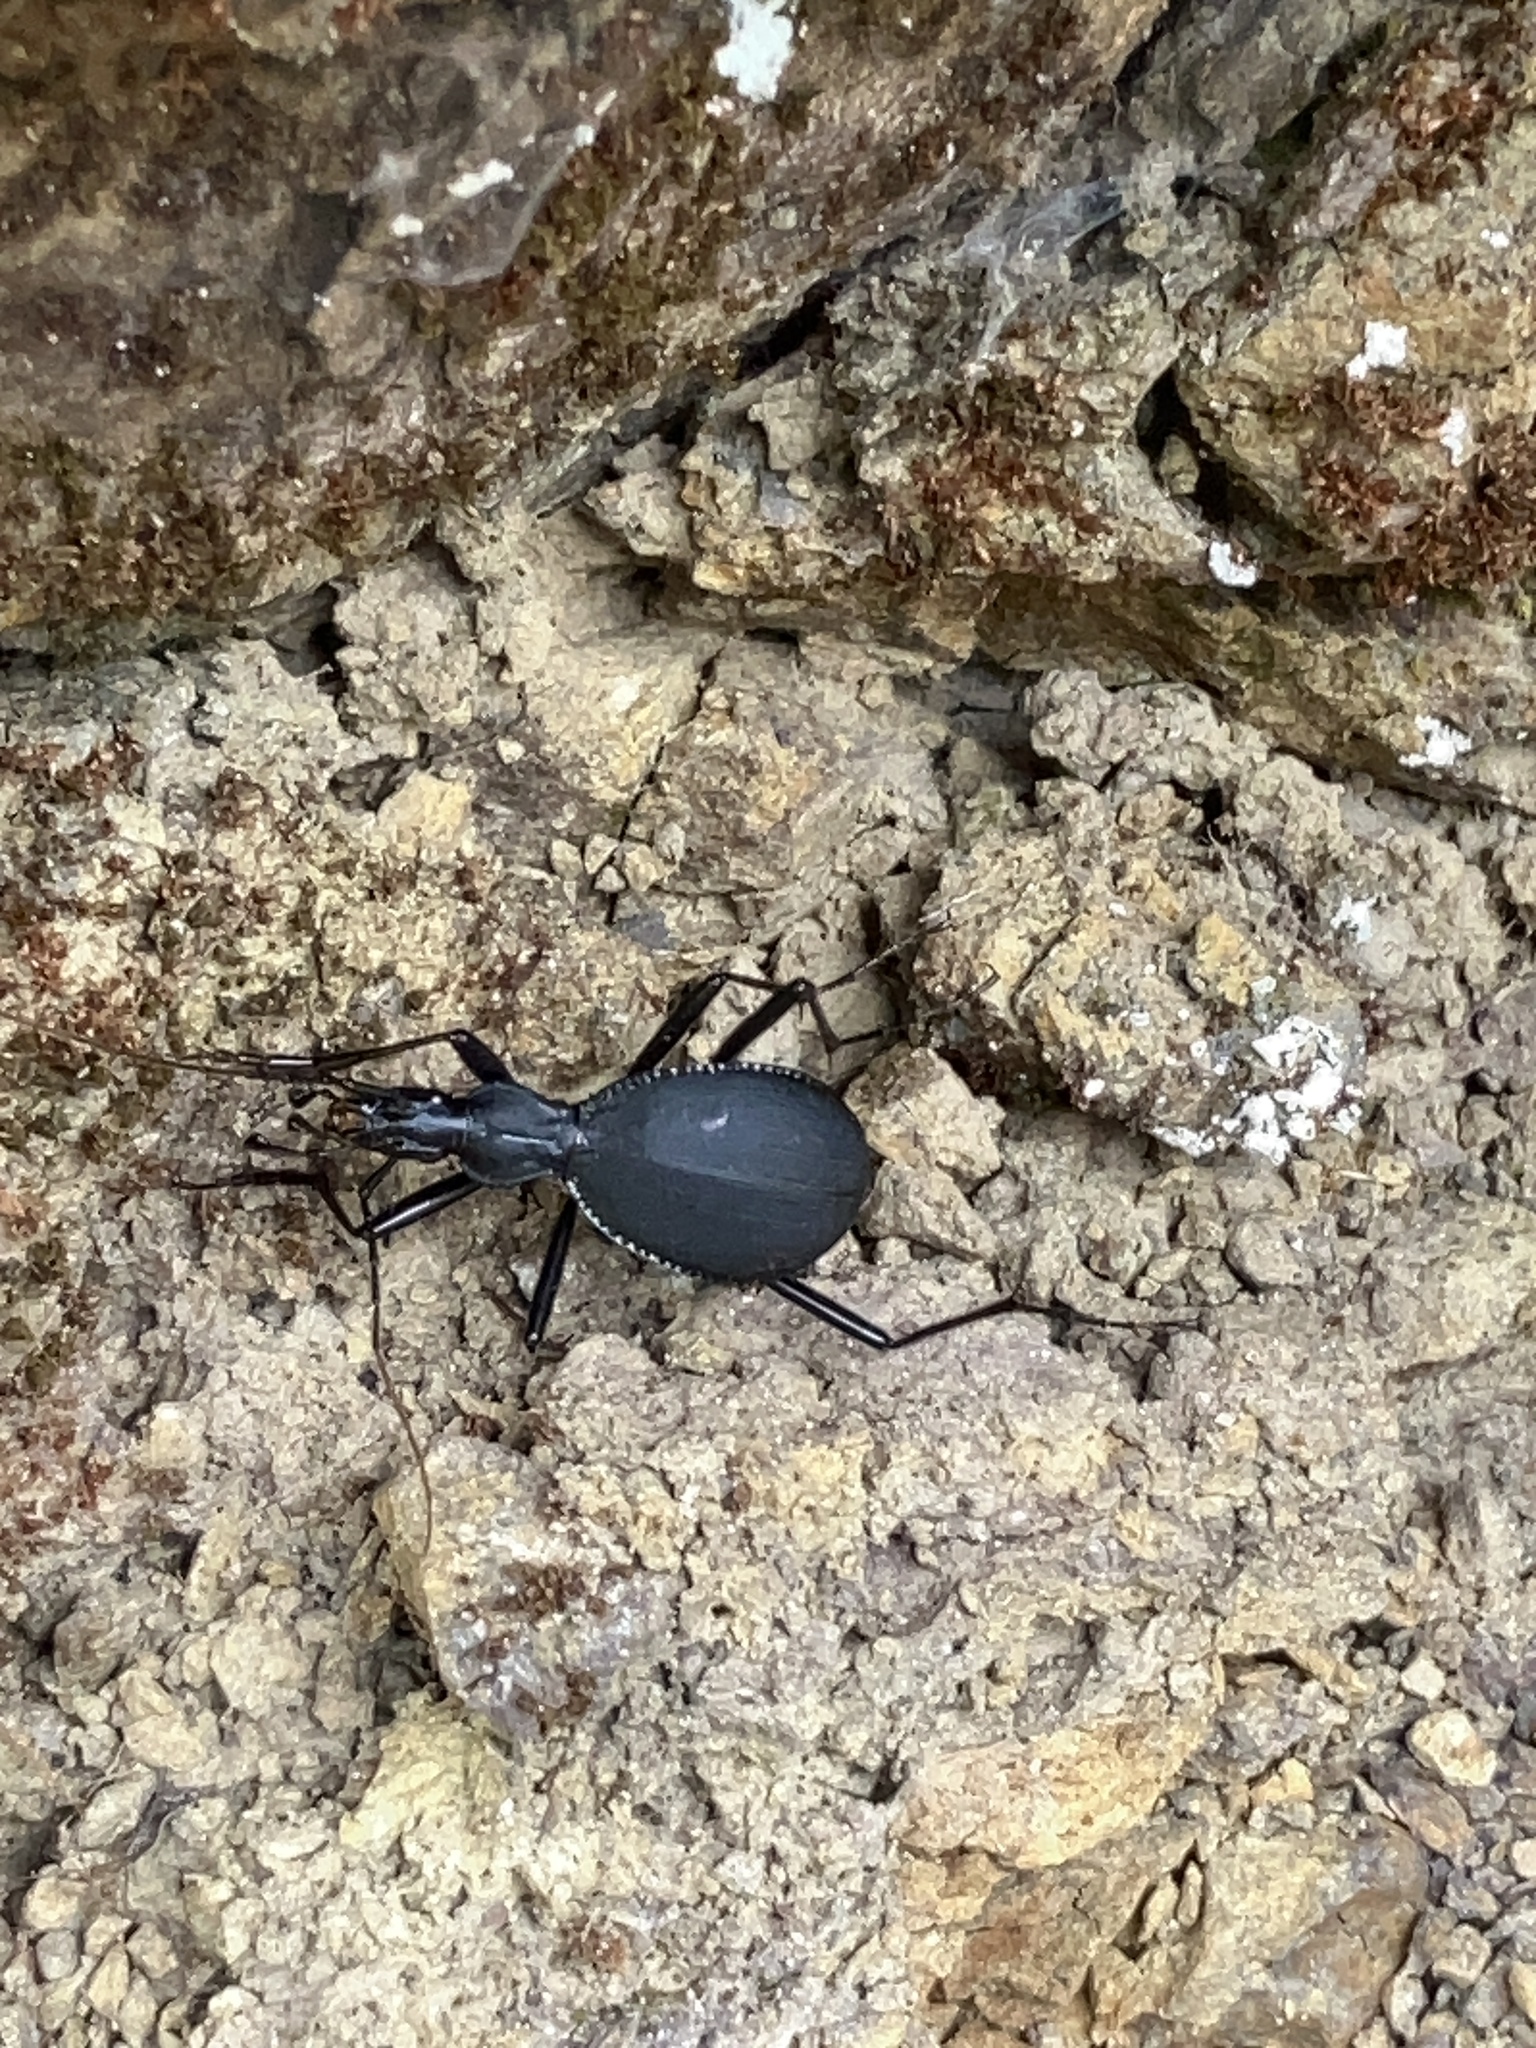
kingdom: Animalia
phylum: Arthropoda
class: Insecta
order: Coleoptera
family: Carabidae
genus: Scaphinotus
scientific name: Scaphinotus angusticollis
